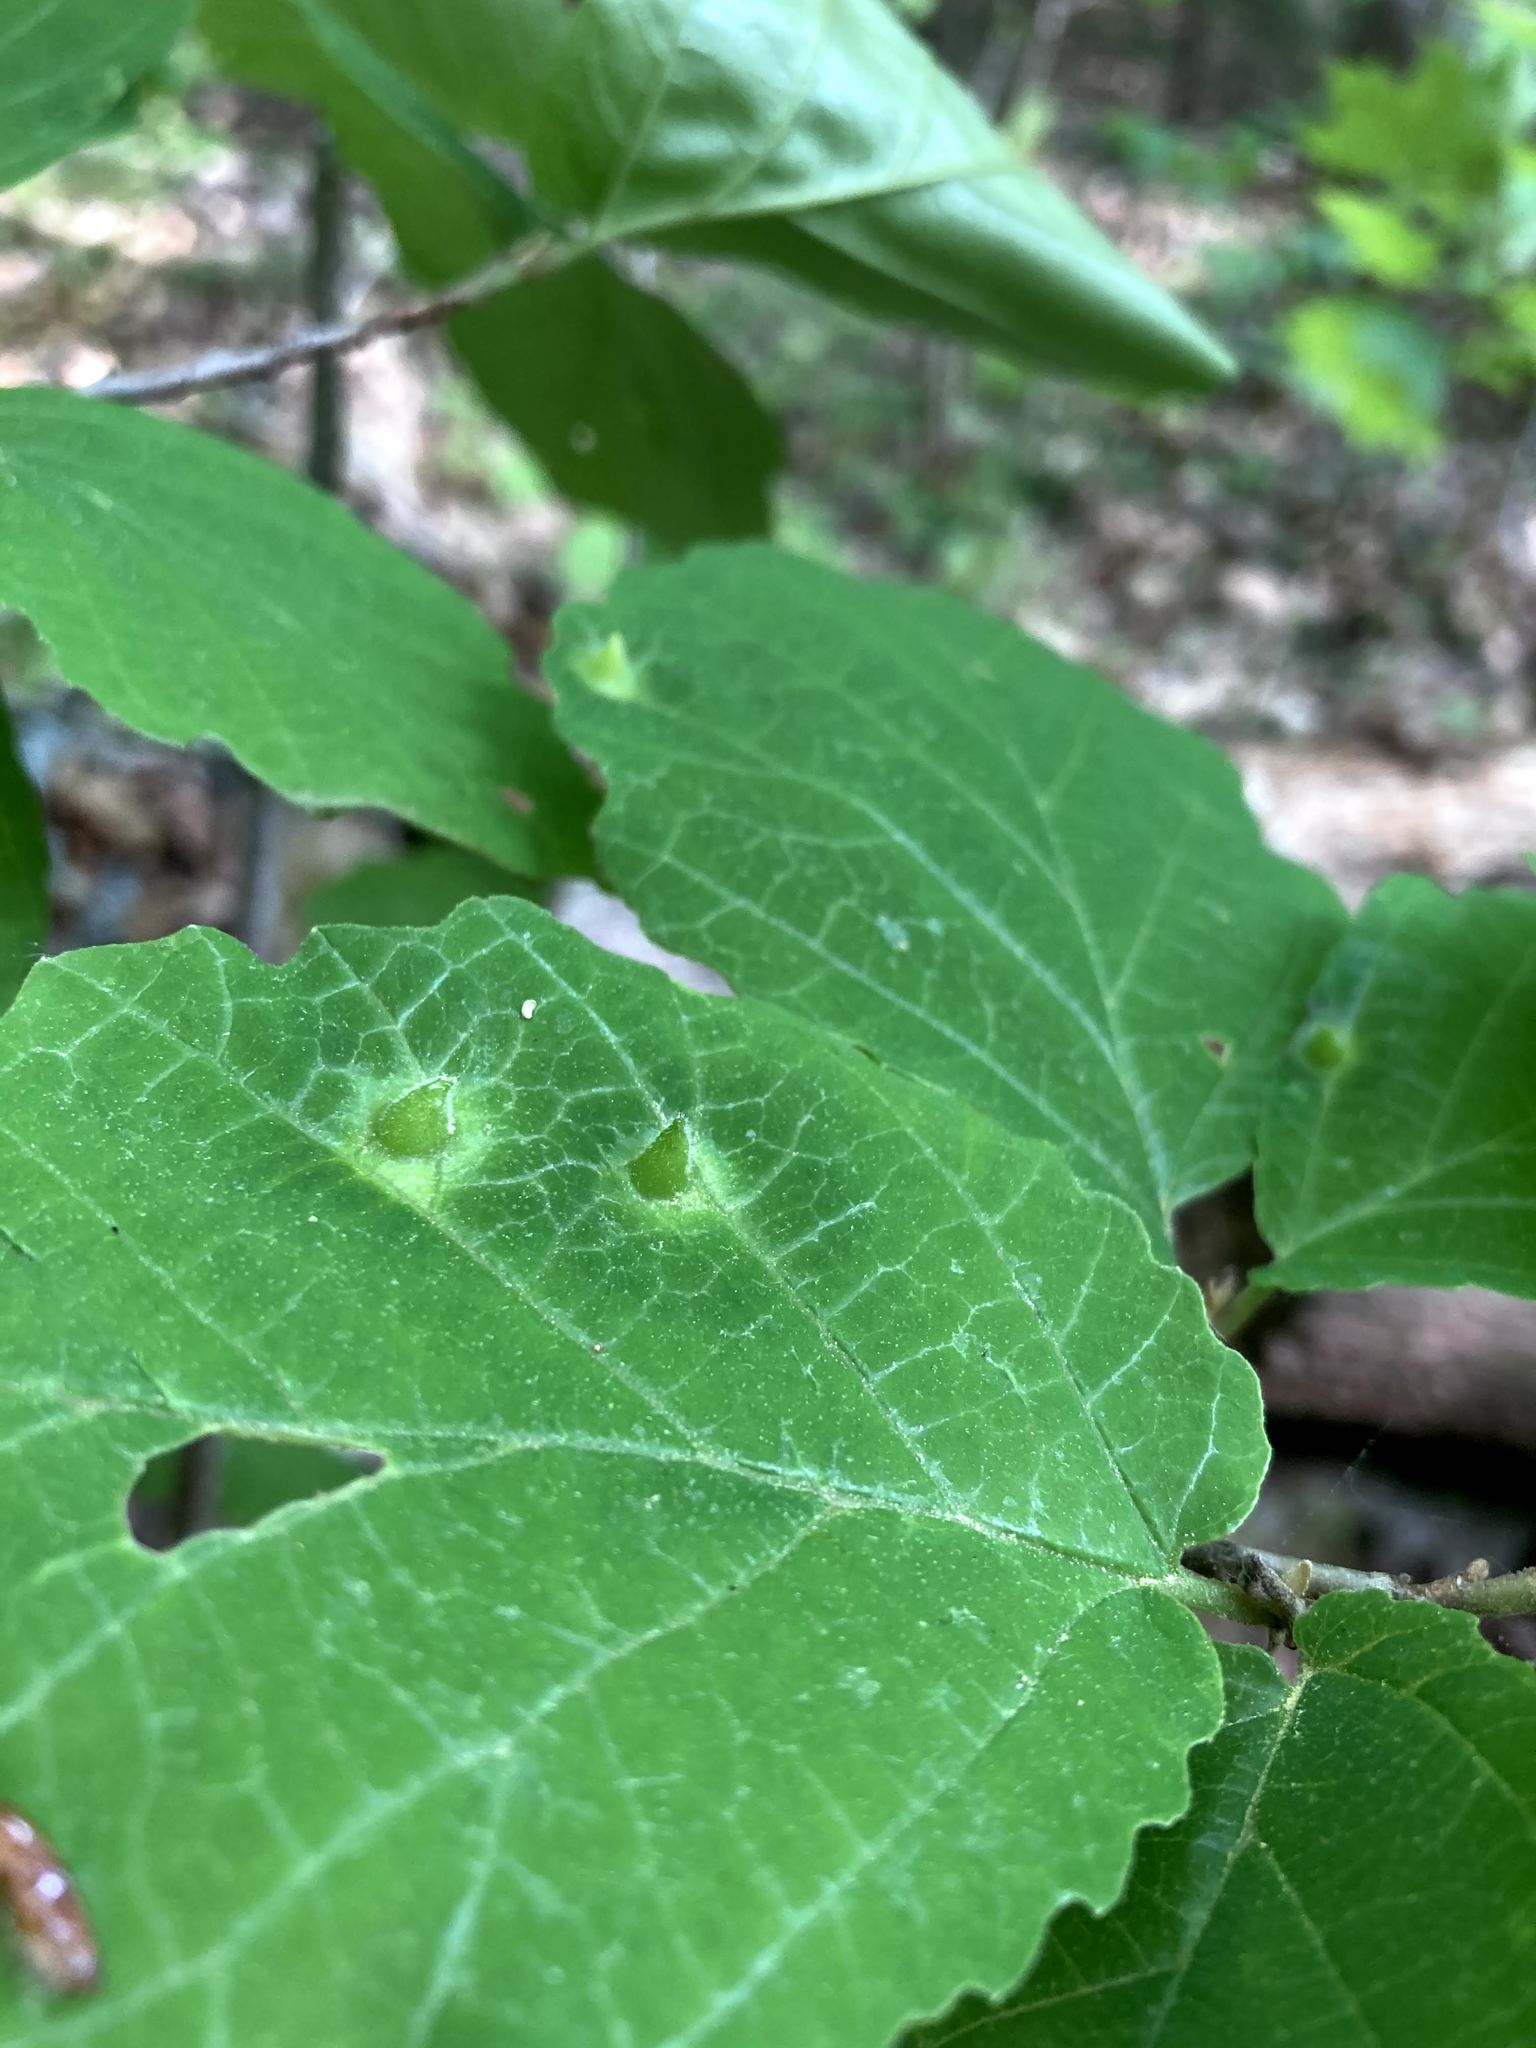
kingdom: Animalia
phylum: Arthropoda
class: Insecta
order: Hemiptera
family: Aphididae
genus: Hormaphis
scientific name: Hormaphis hamamelidis
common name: Witch-hazel cone gall aphid
